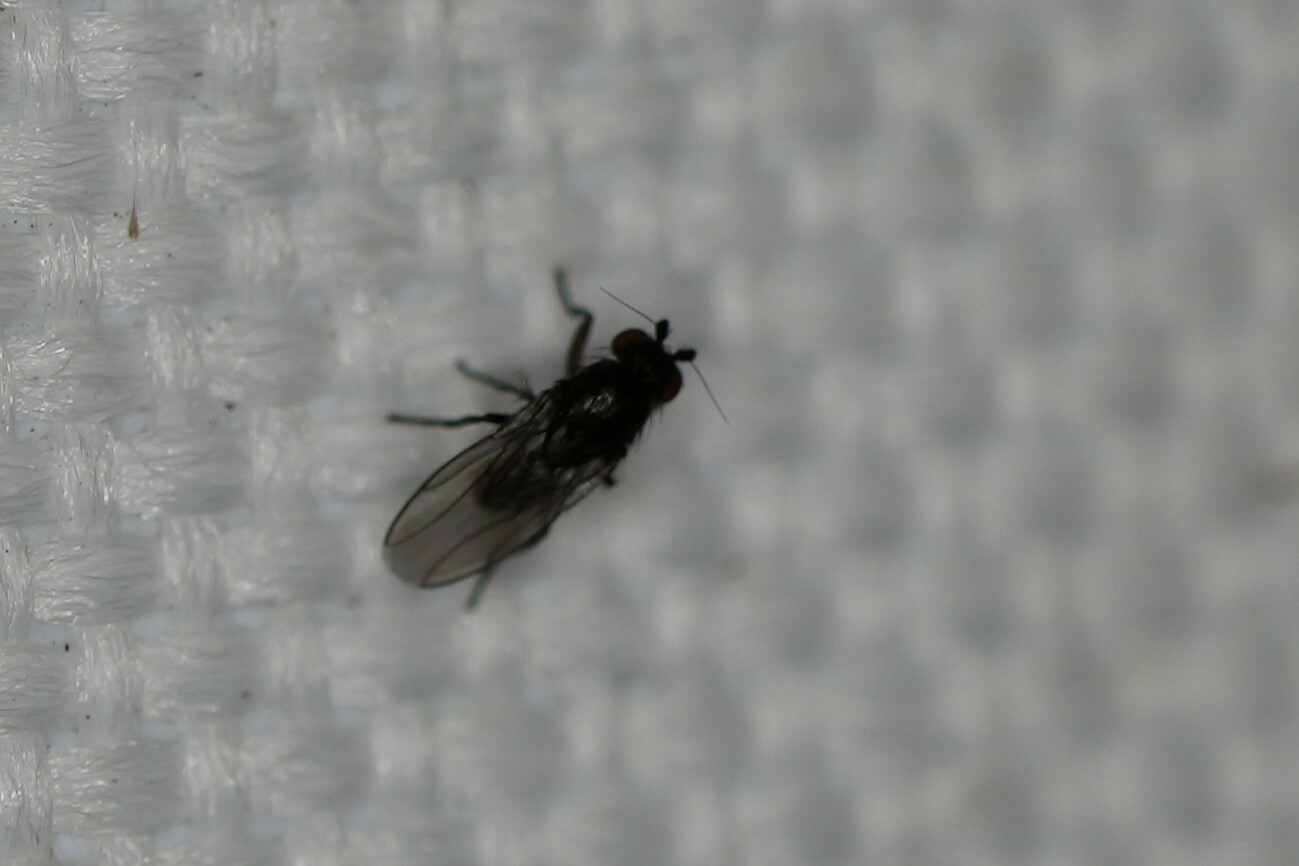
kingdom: Animalia
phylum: Arthropoda
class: Insecta
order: Diptera
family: Sphaeroceridae
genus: Leptocera
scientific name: Leptocera
